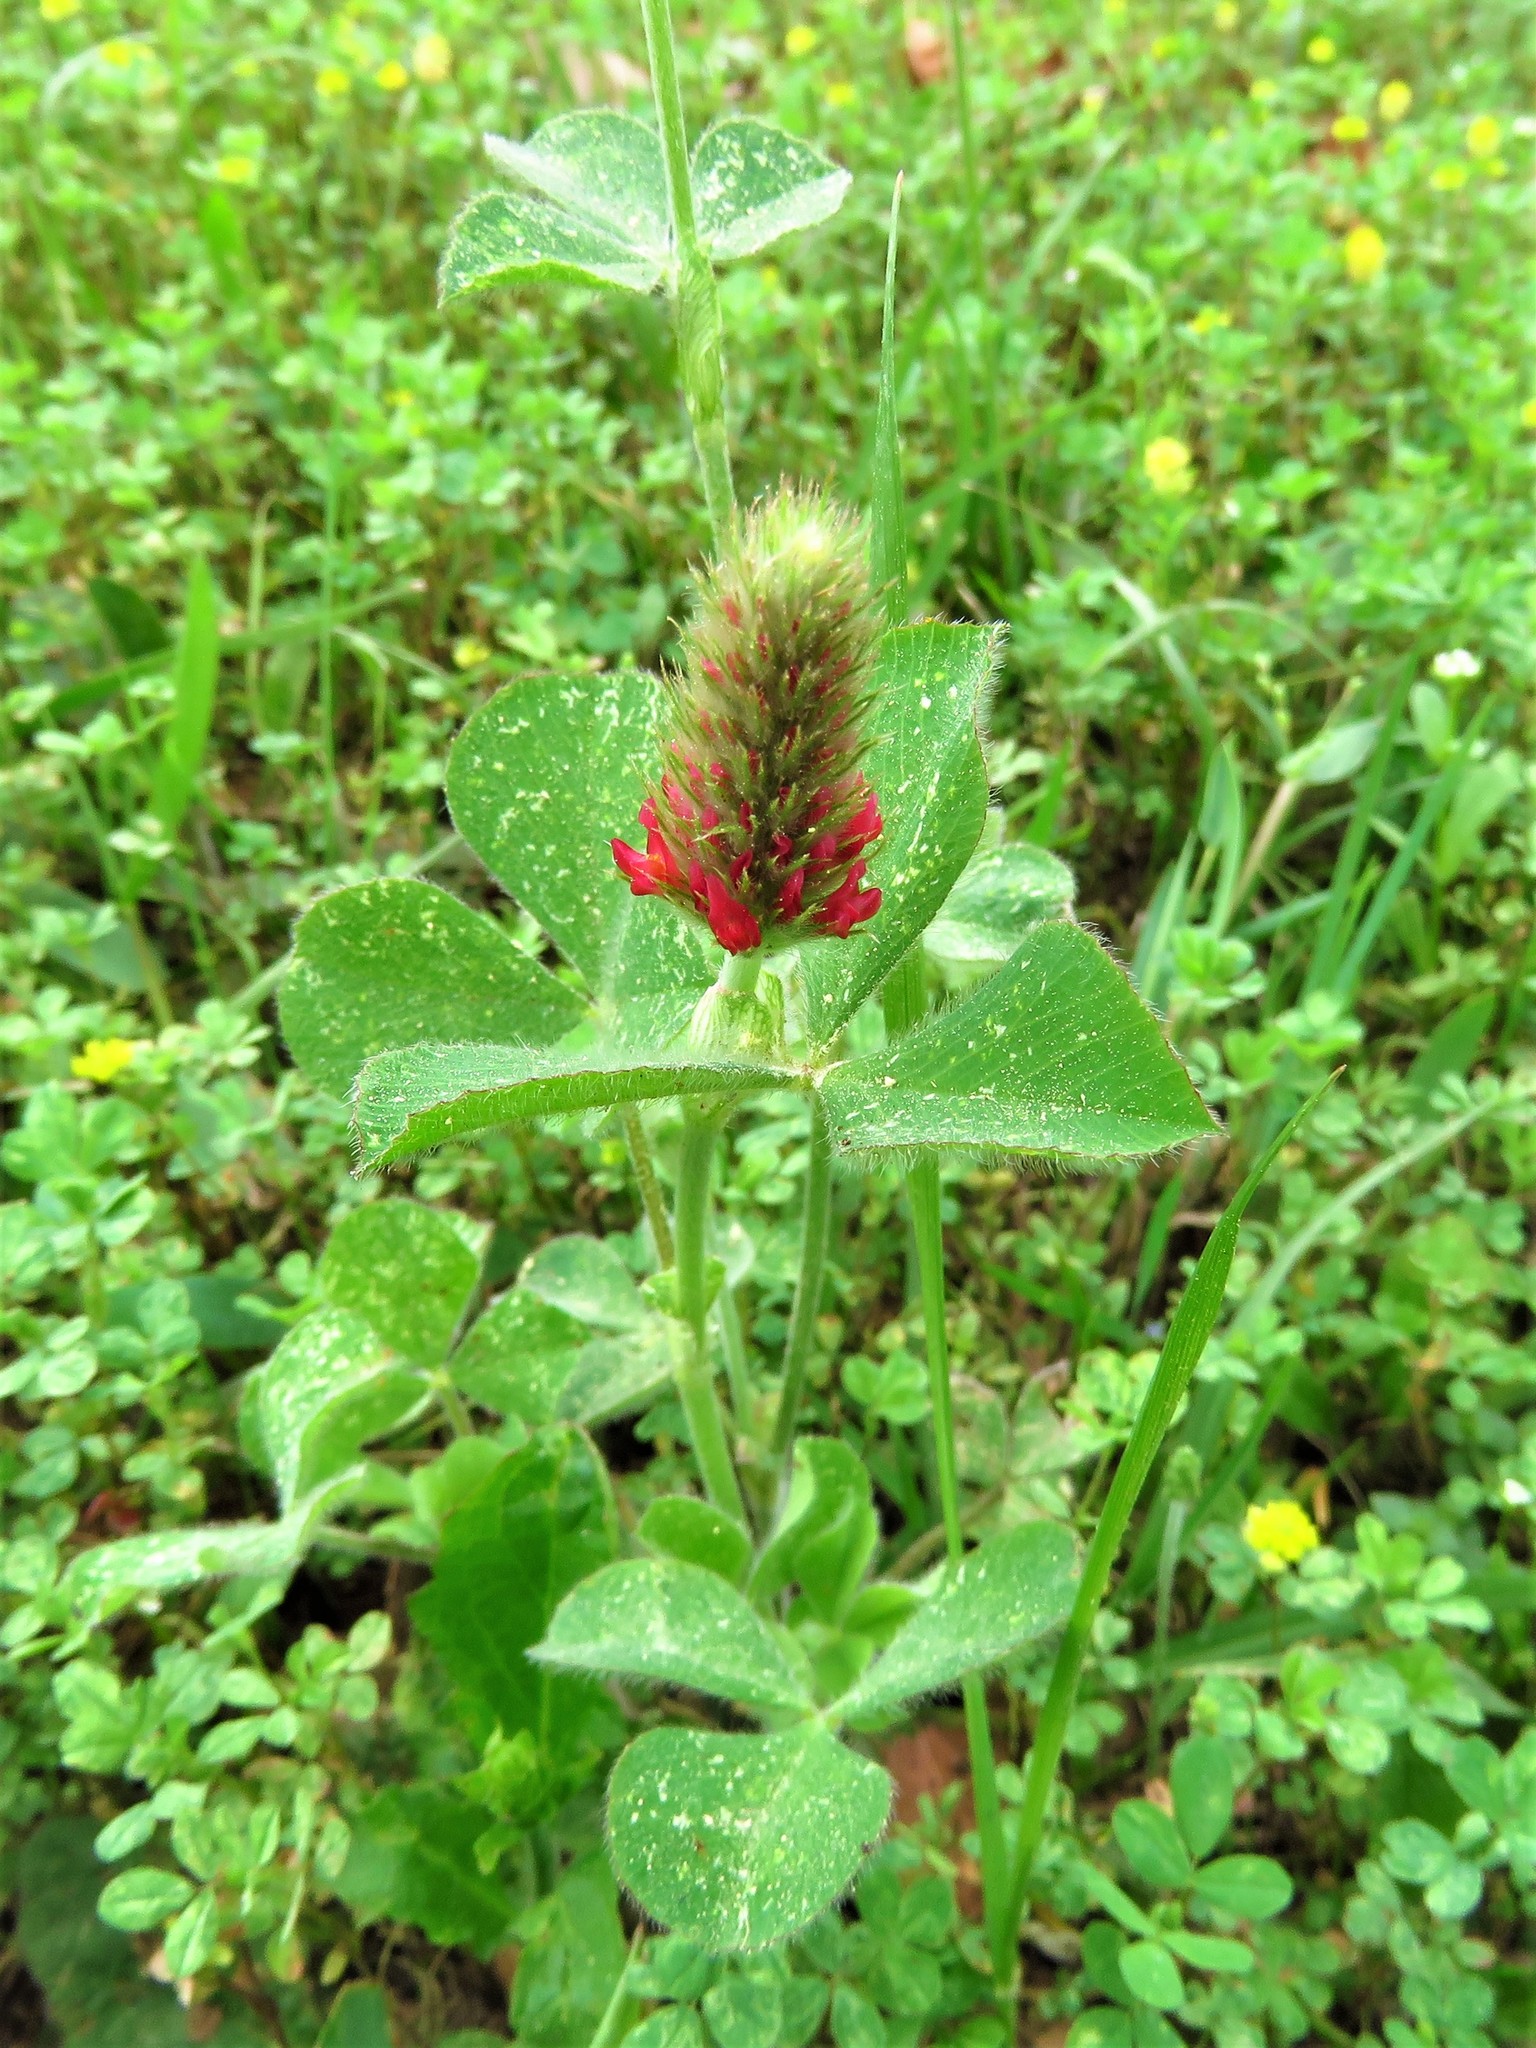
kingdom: Plantae
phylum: Tracheophyta
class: Magnoliopsida
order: Fabales
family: Fabaceae
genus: Trifolium
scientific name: Trifolium incarnatum
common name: Crimson clover
